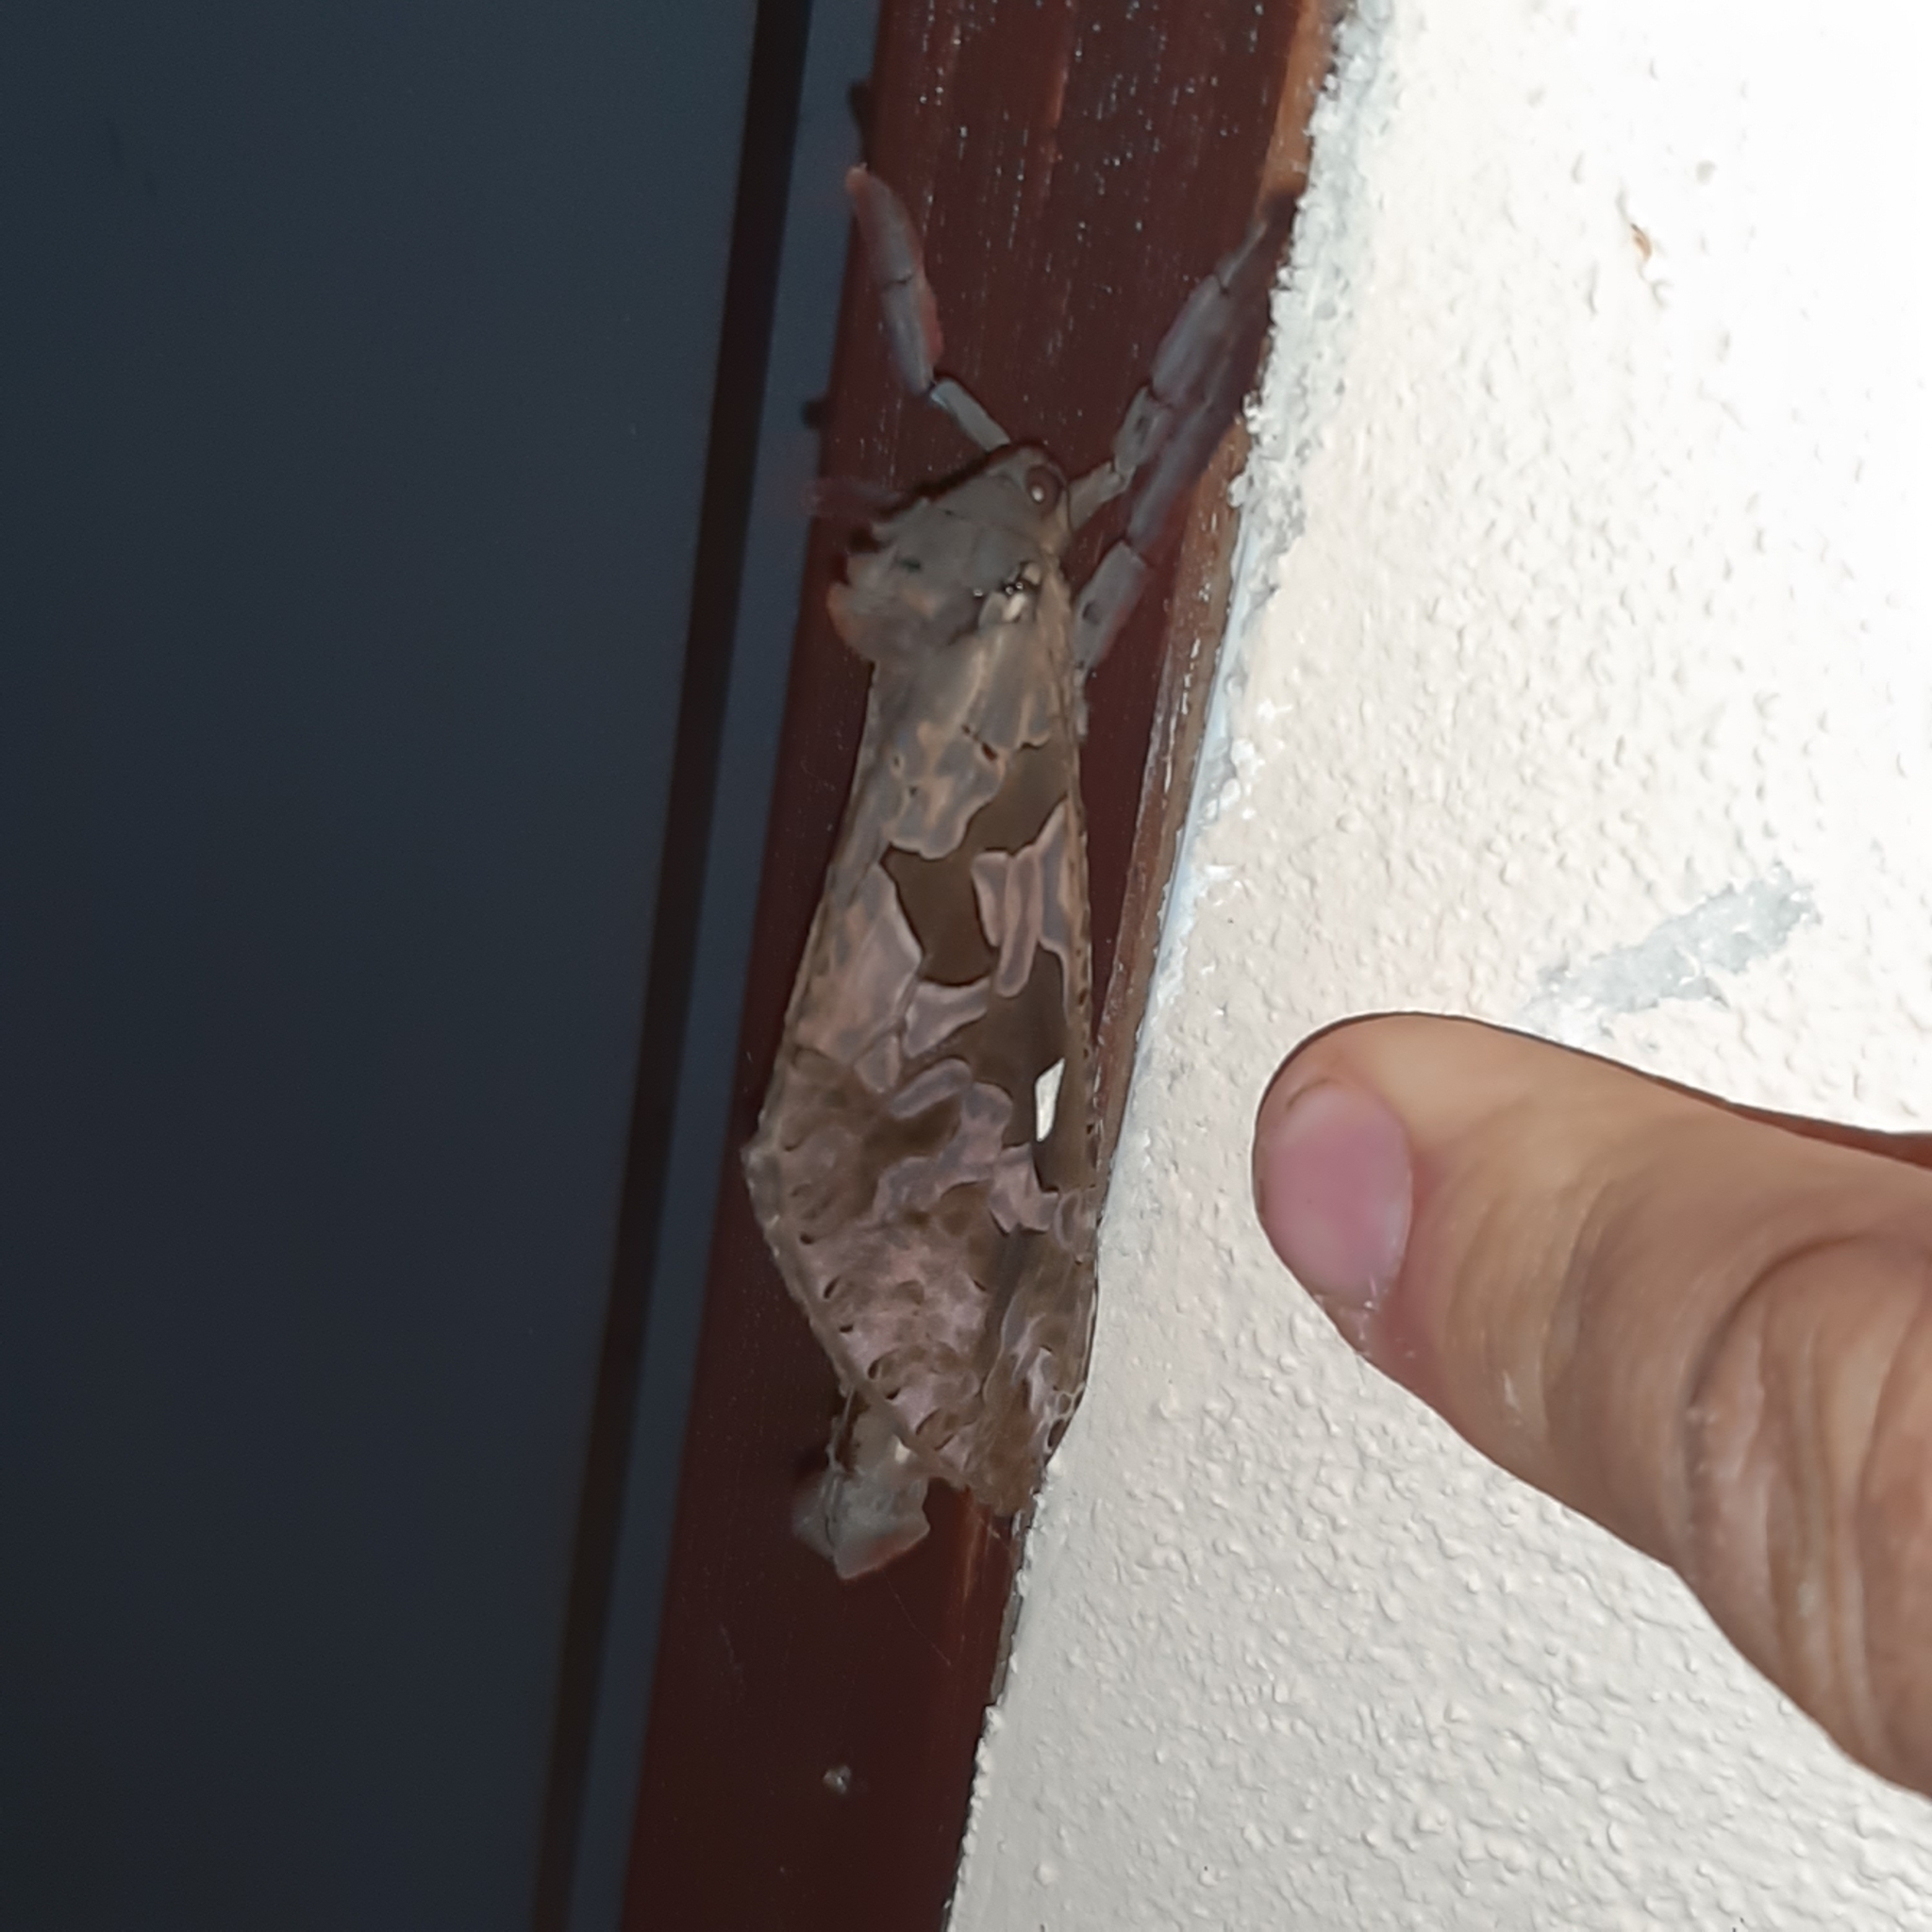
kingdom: Animalia
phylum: Arthropoda
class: Insecta
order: Lepidoptera
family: Hepialidae
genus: Phassus
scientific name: Phassus n-signatus
